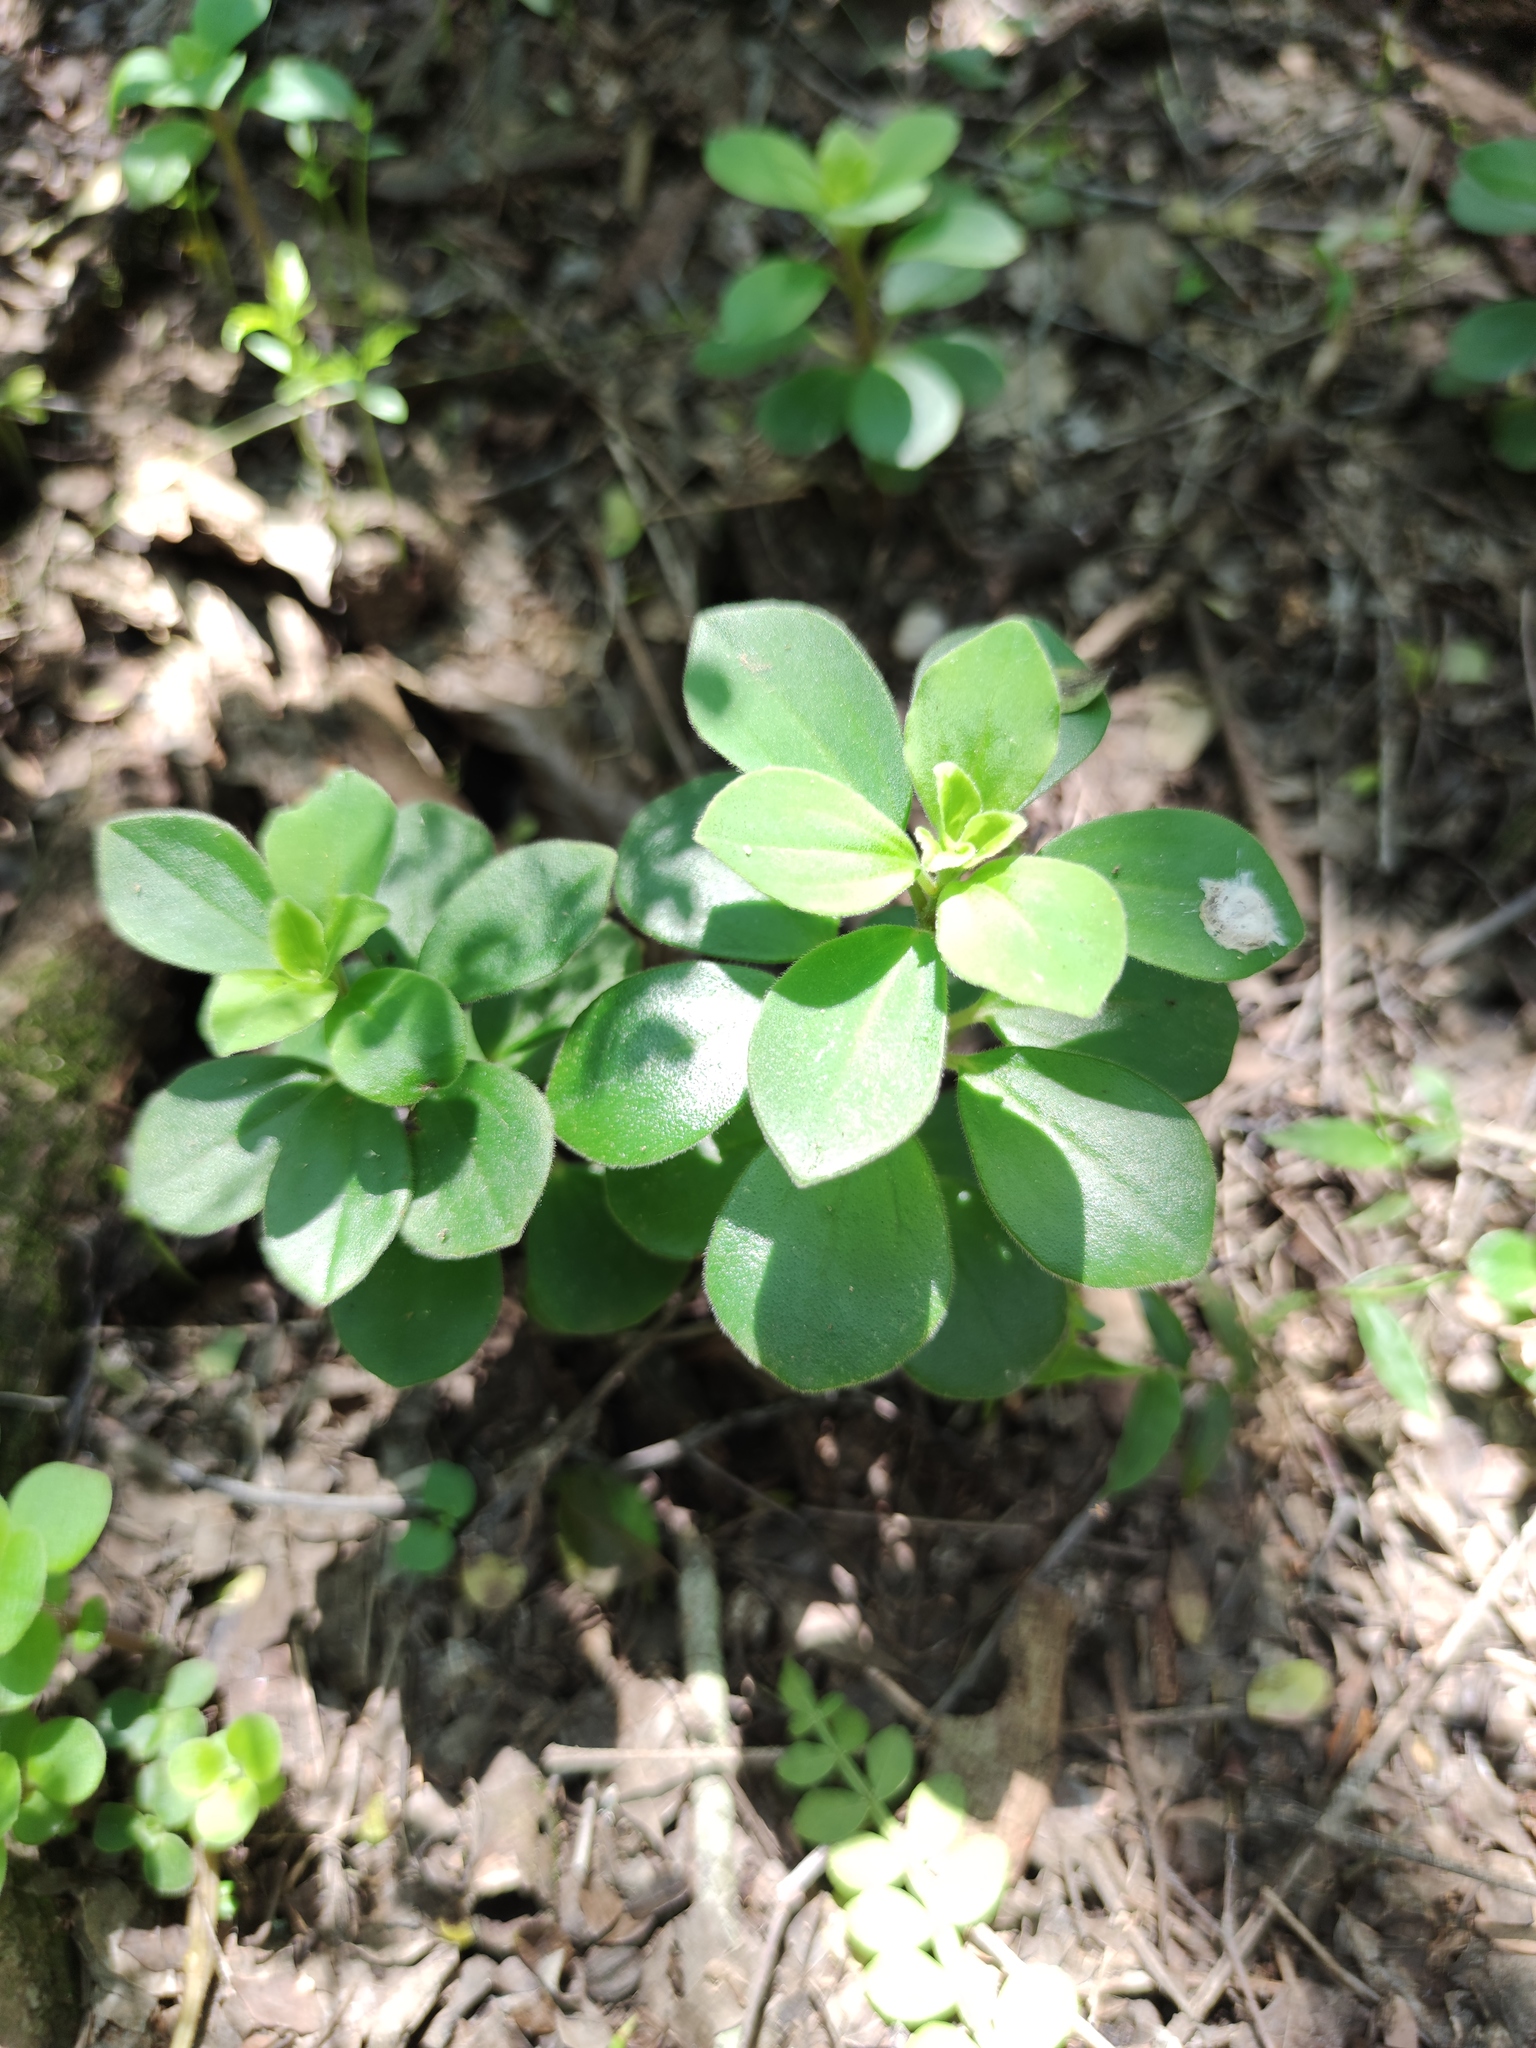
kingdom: Plantae
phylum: Tracheophyta
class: Magnoliopsida
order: Piperales
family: Piperaceae
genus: Peperomia
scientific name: Peperomia liebmannii
